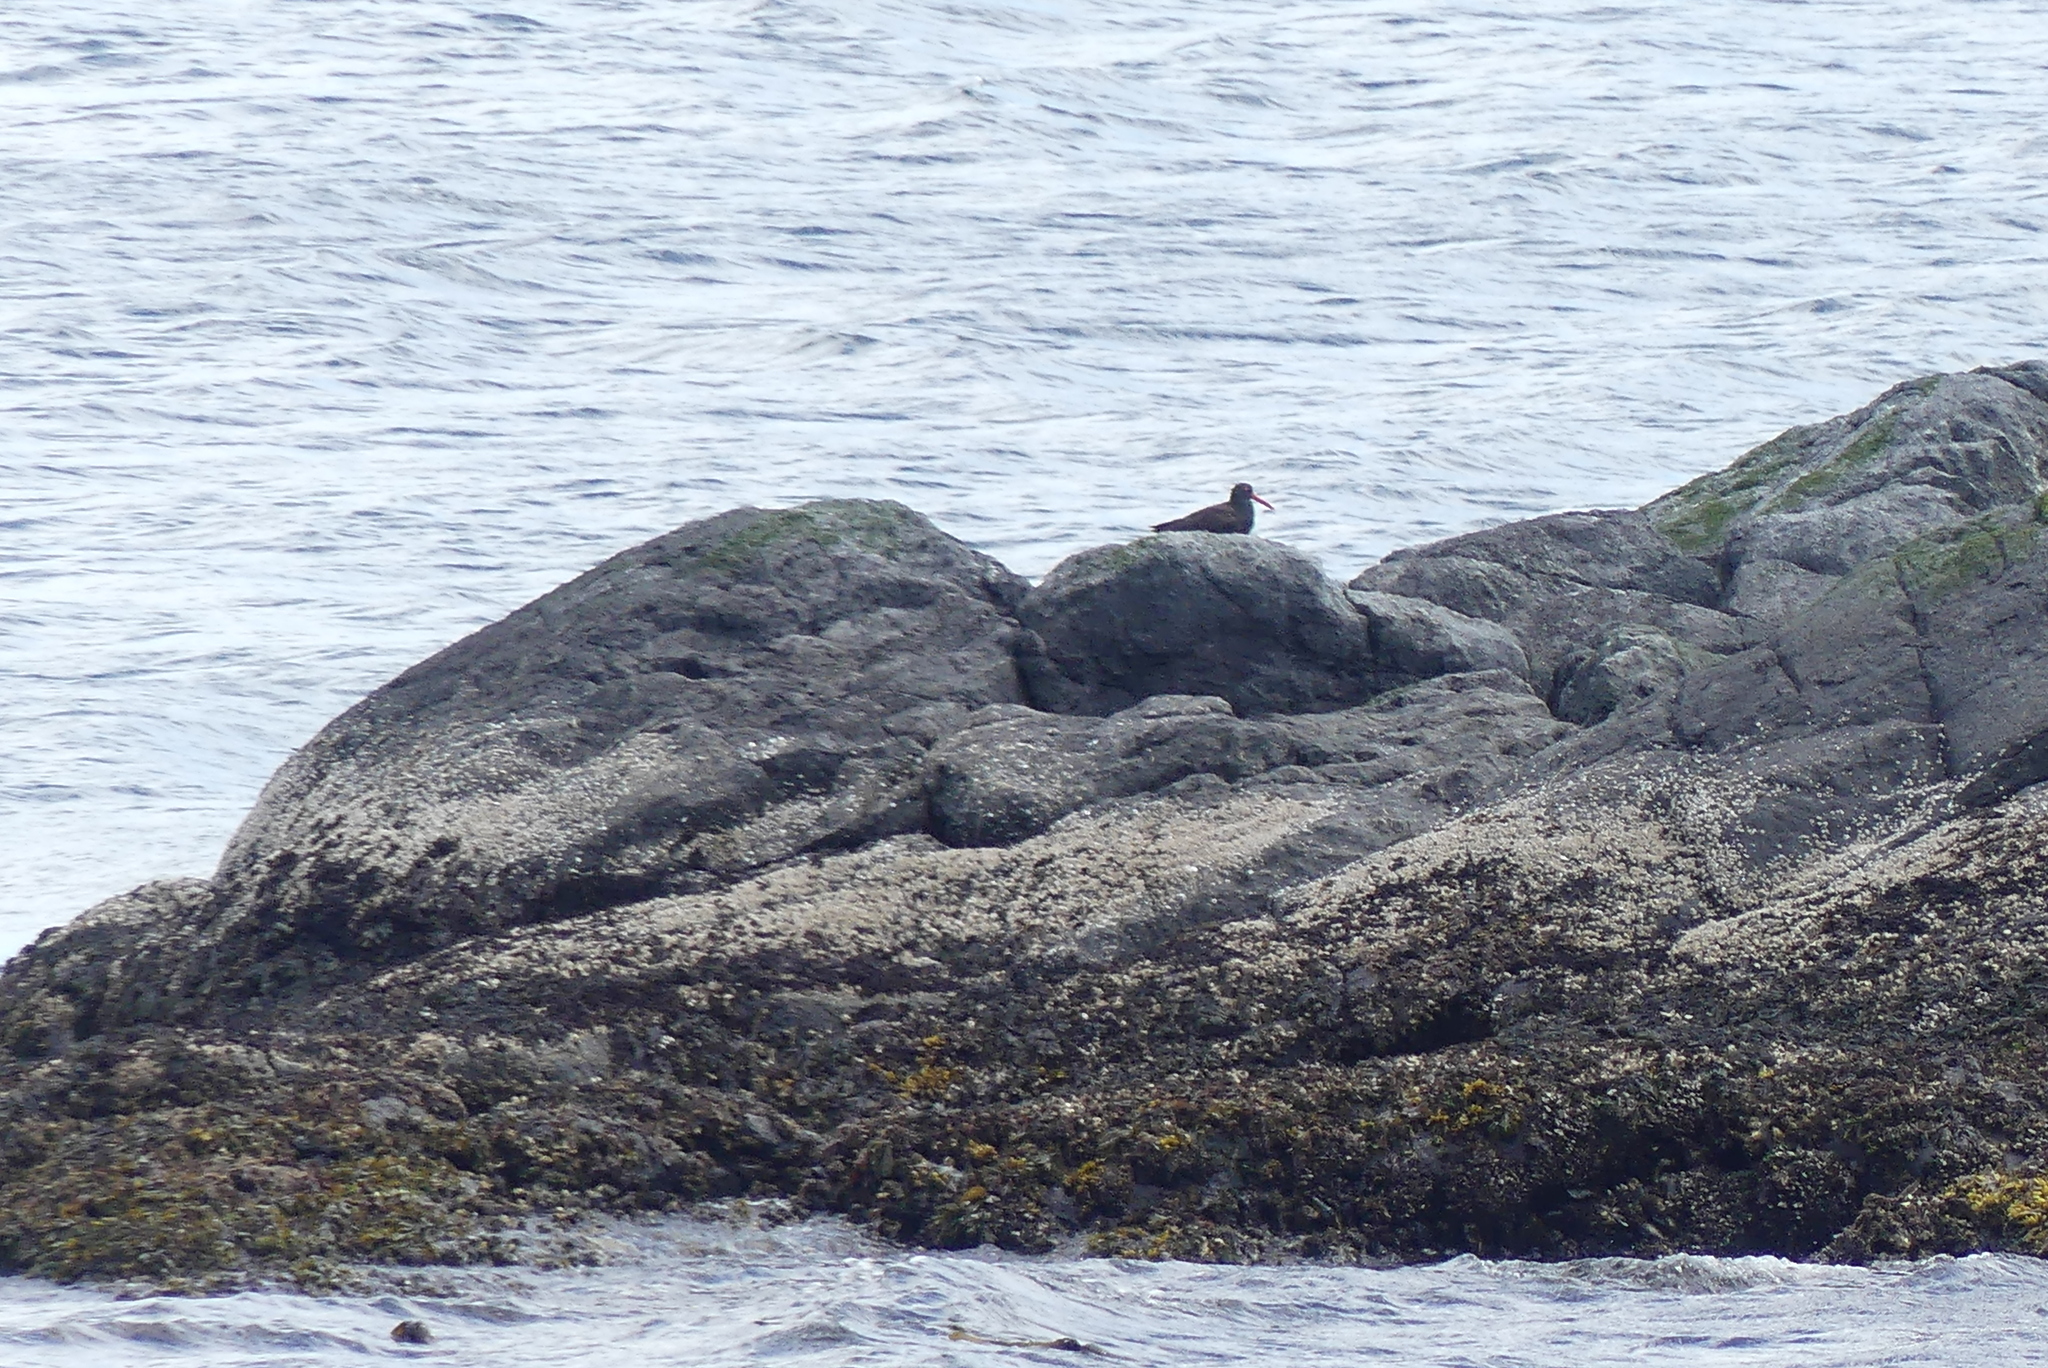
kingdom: Animalia
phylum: Chordata
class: Aves
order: Charadriiformes
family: Haematopodidae
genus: Haematopus
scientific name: Haematopus bachmani
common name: Black oystercatcher
